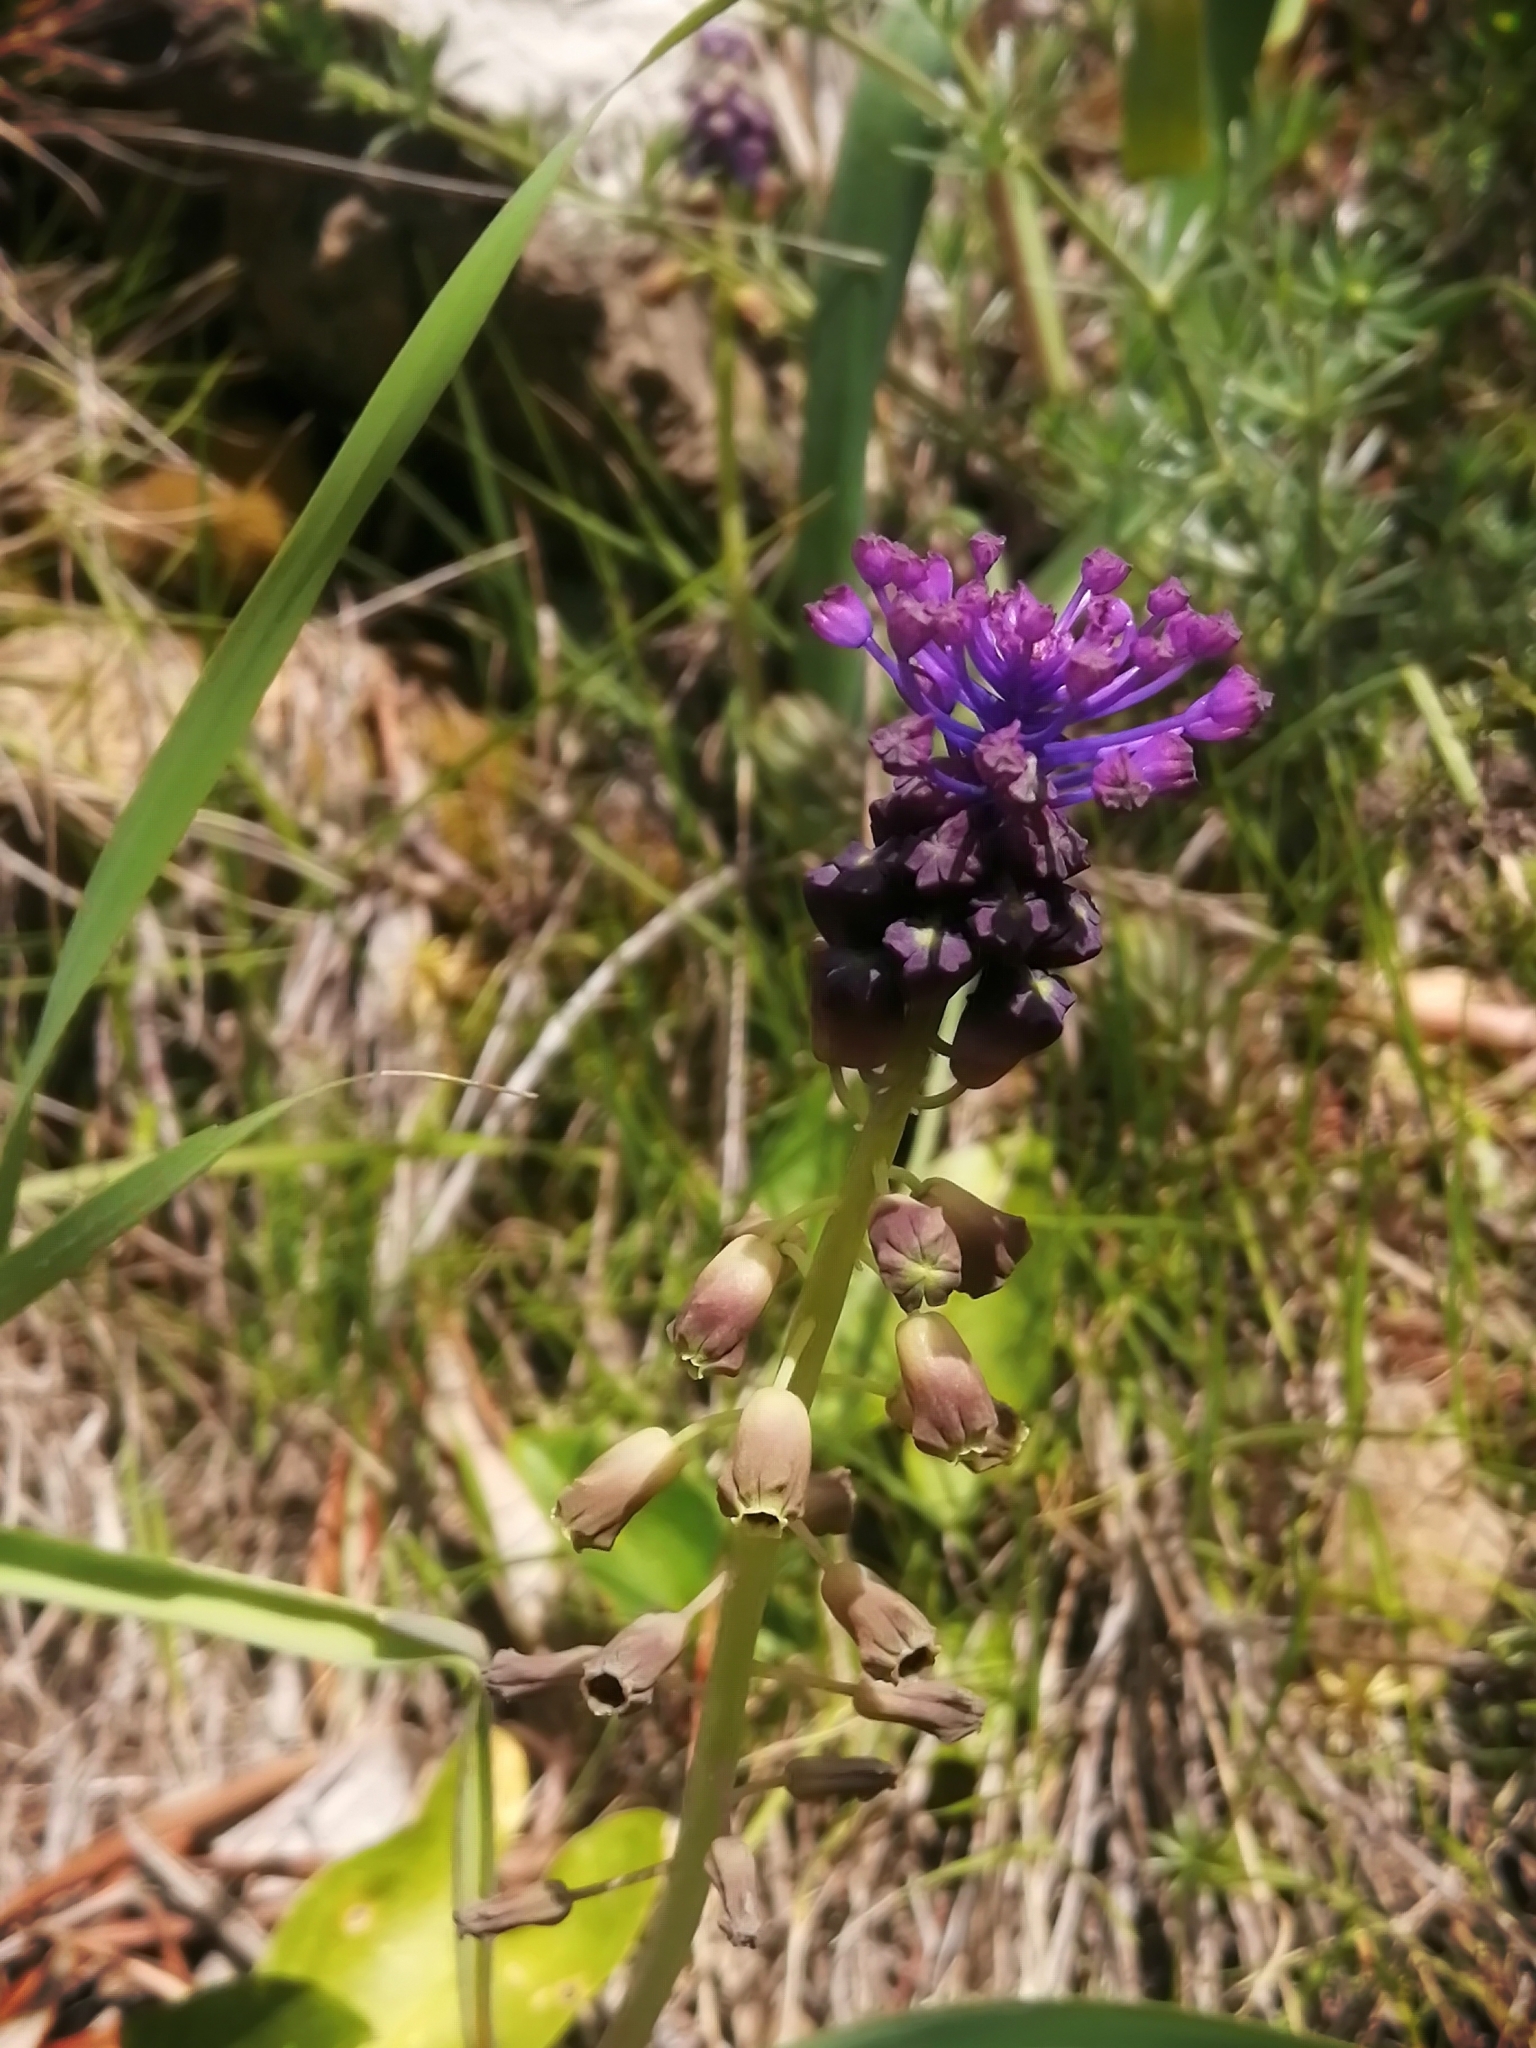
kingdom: Plantae
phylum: Tracheophyta
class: Liliopsida
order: Asparagales
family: Asparagaceae
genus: Muscari
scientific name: Muscari comosum
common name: Tassel hyacinth
